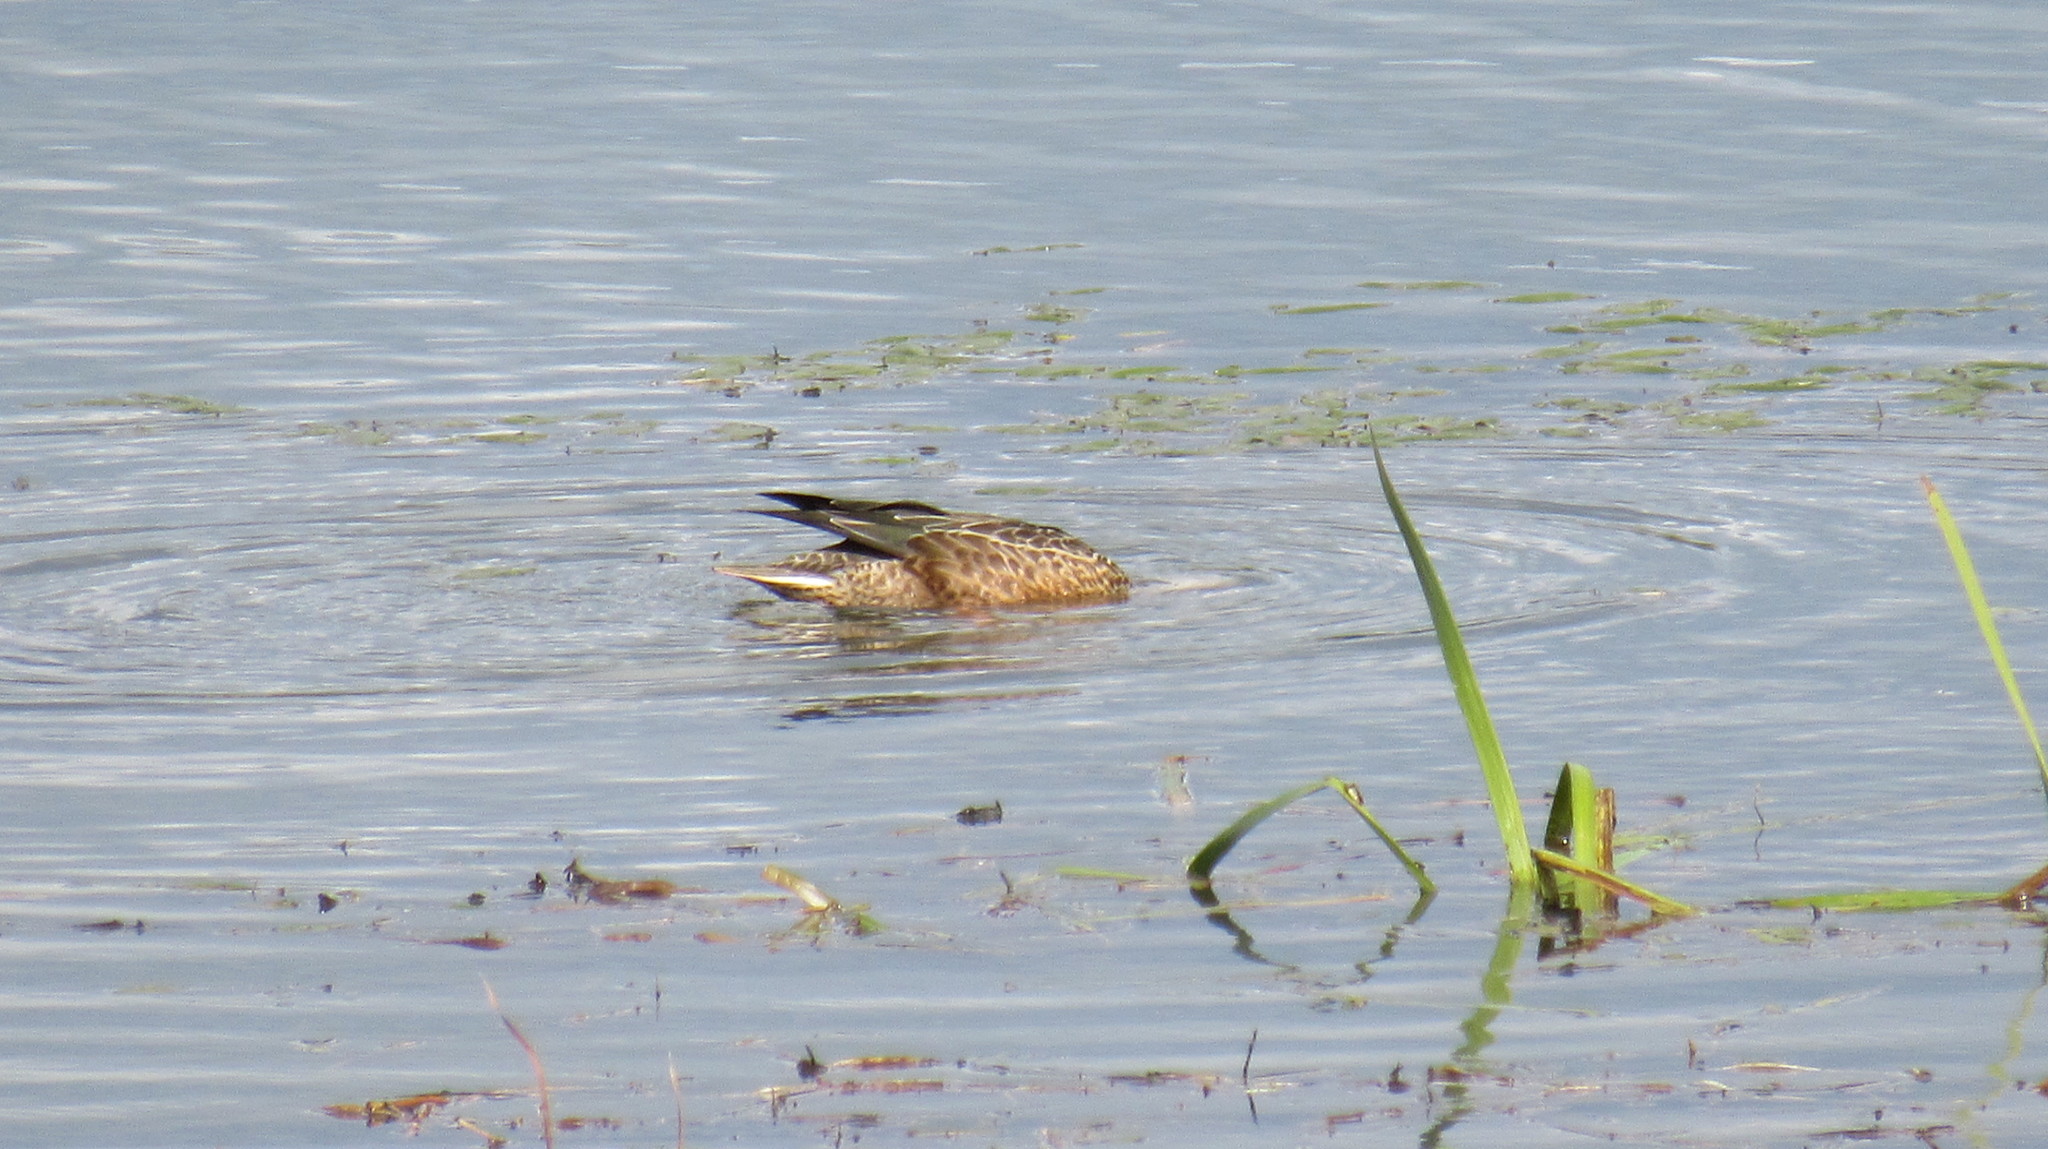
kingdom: Animalia
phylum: Chordata
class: Aves
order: Anseriformes
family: Anatidae
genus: Spatula
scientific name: Spatula clypeata
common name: Northern shoveler
